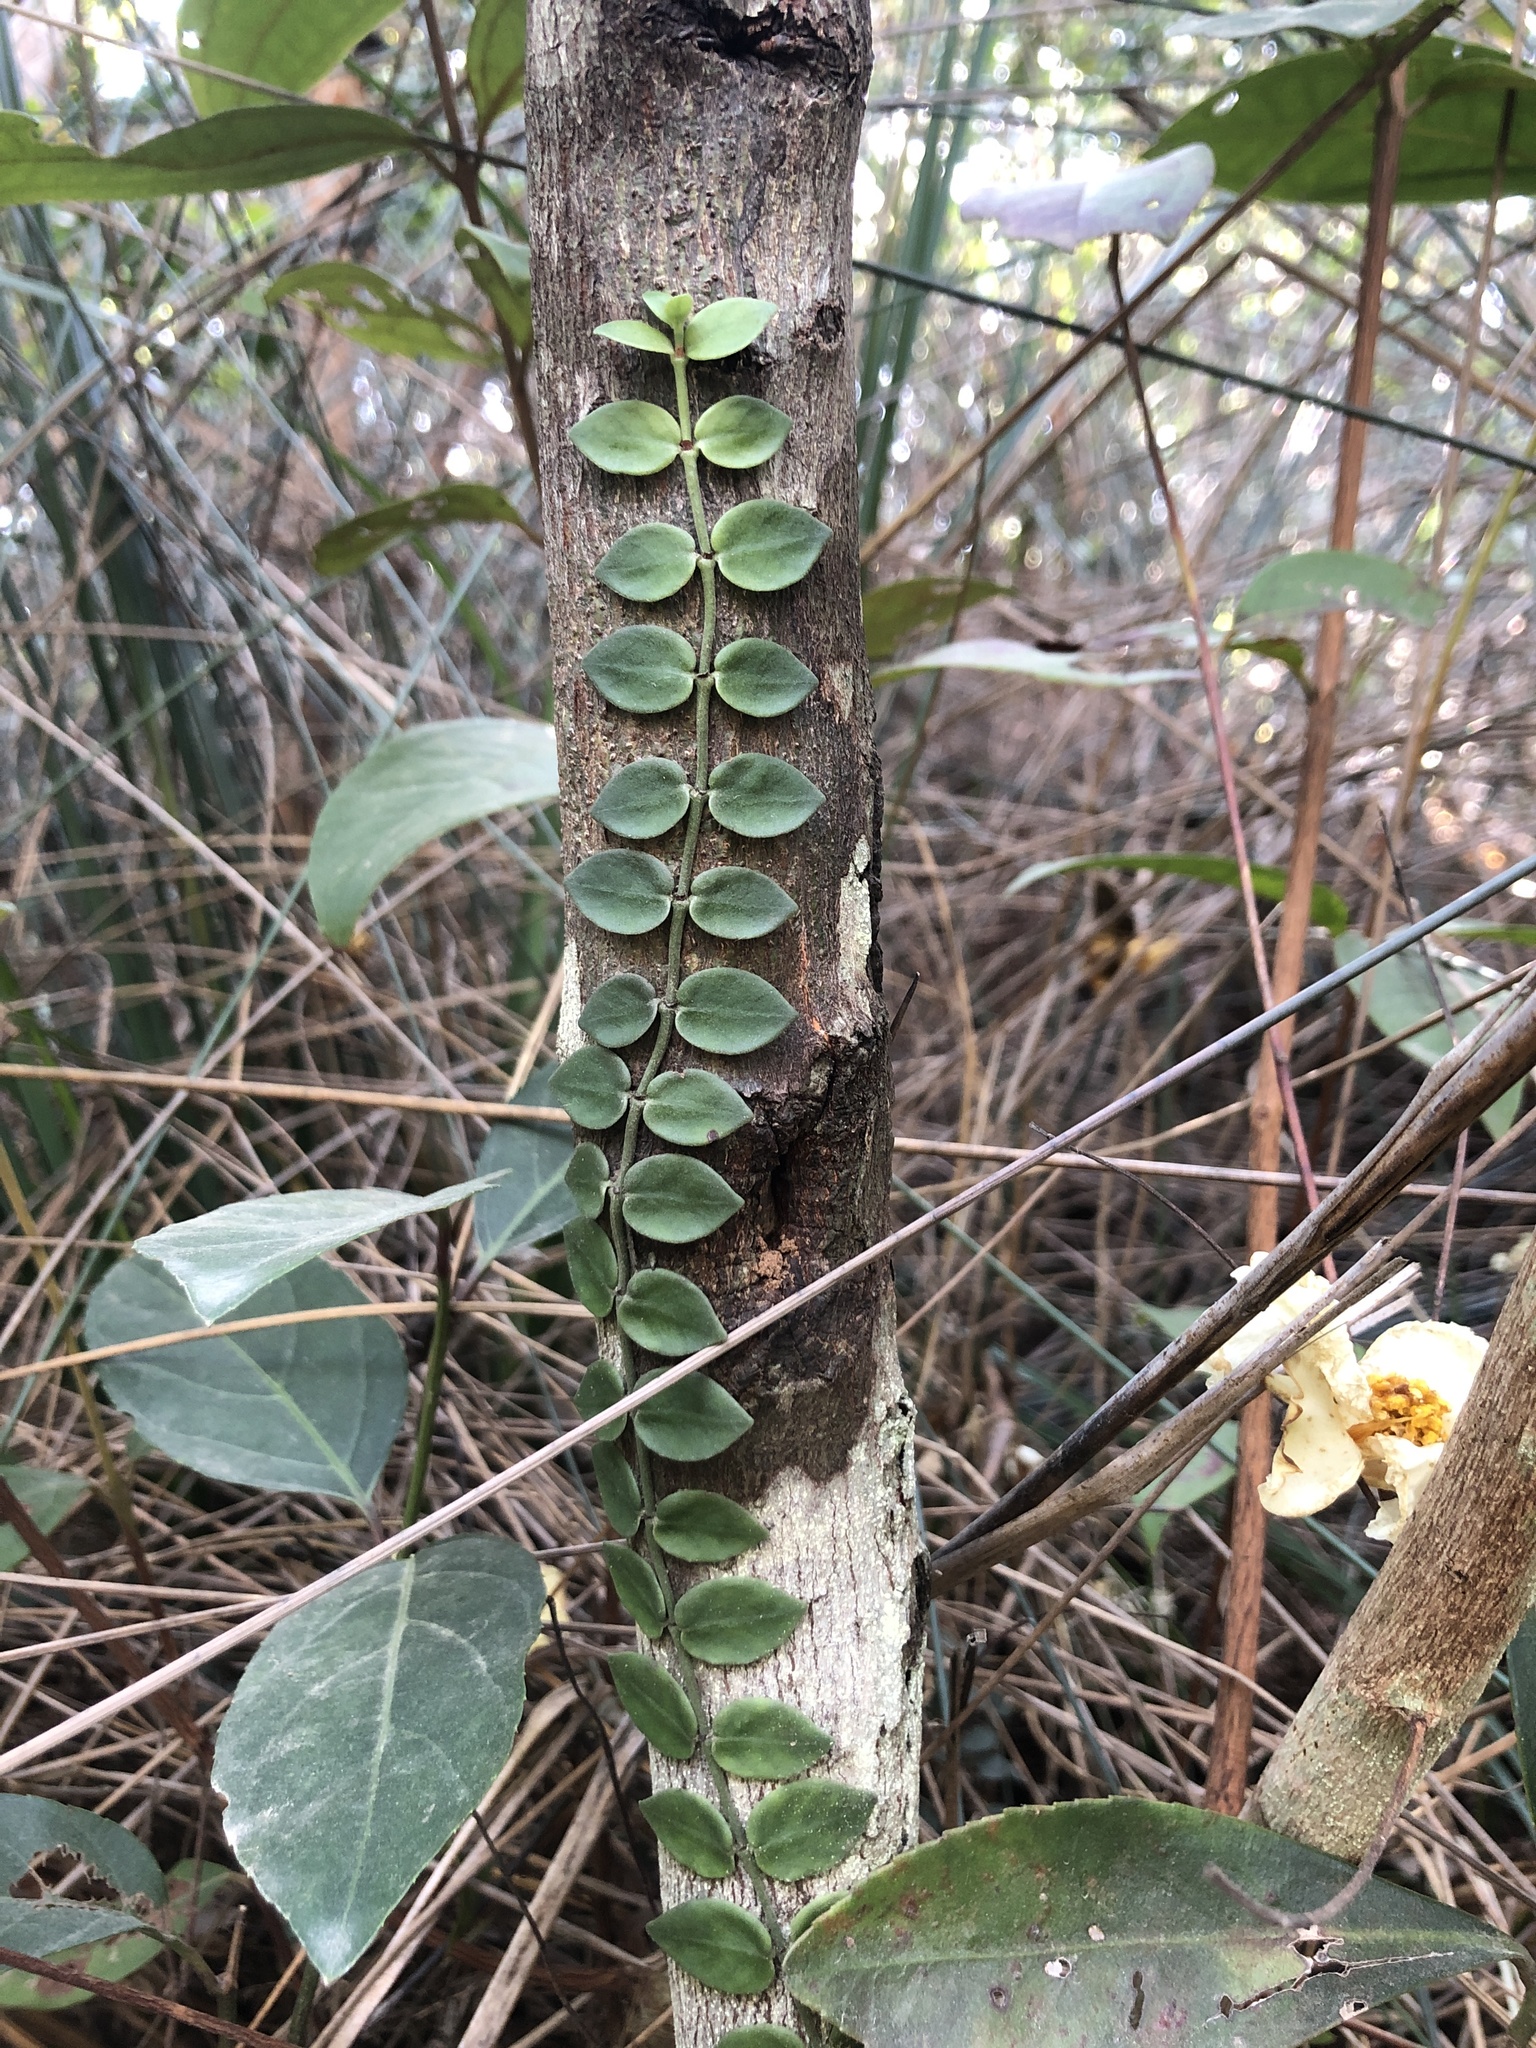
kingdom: Plantae
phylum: Tracheophyta
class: Magnoliopsida
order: Gentianales
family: Rubiaceae
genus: Psychotria
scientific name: Psychotria serpens
